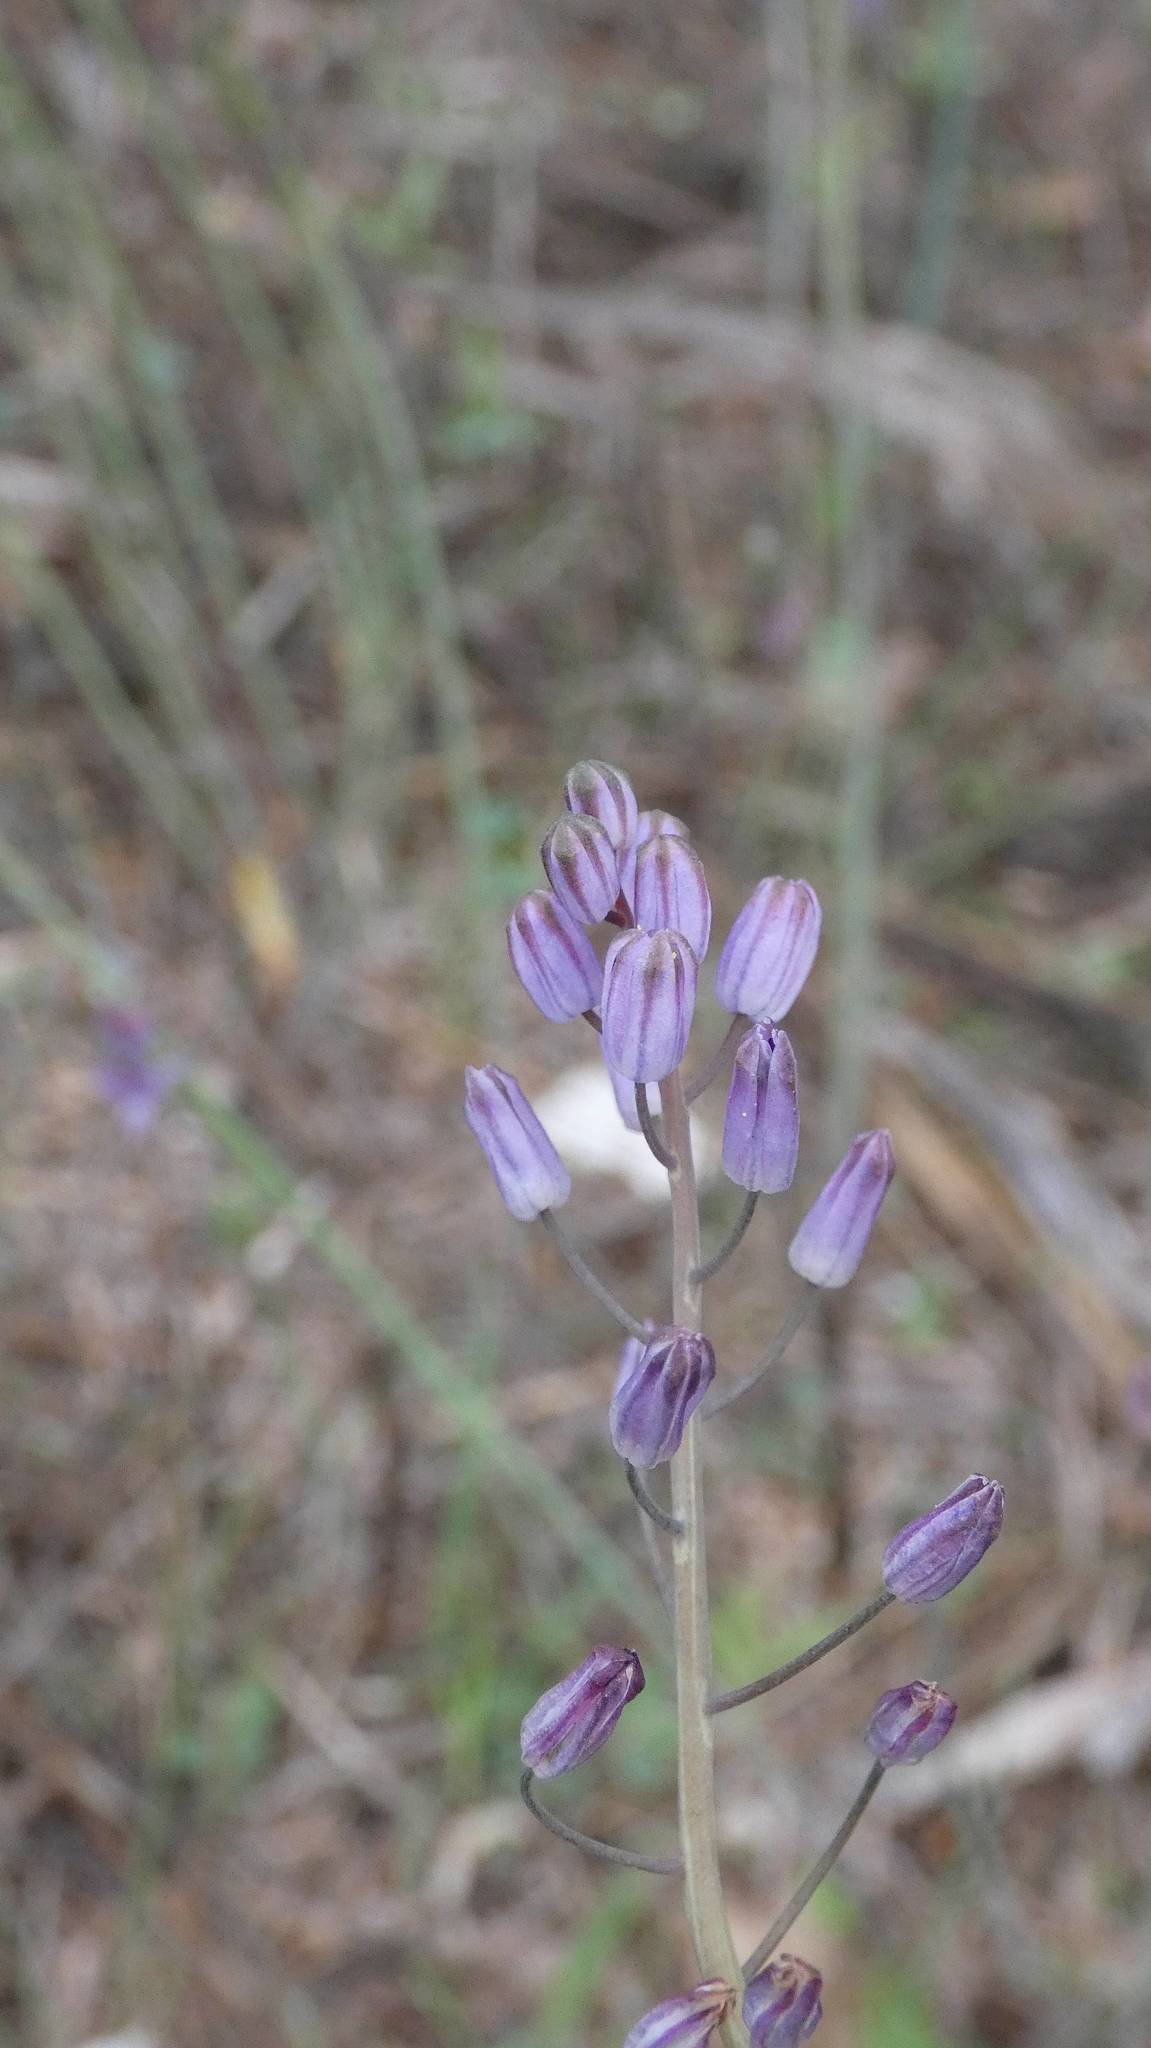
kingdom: Plantae
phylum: Tracheophyta
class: Liliopsida
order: Asparagales
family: Asparagaceae
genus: Prospero
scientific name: Prospero autumnale
